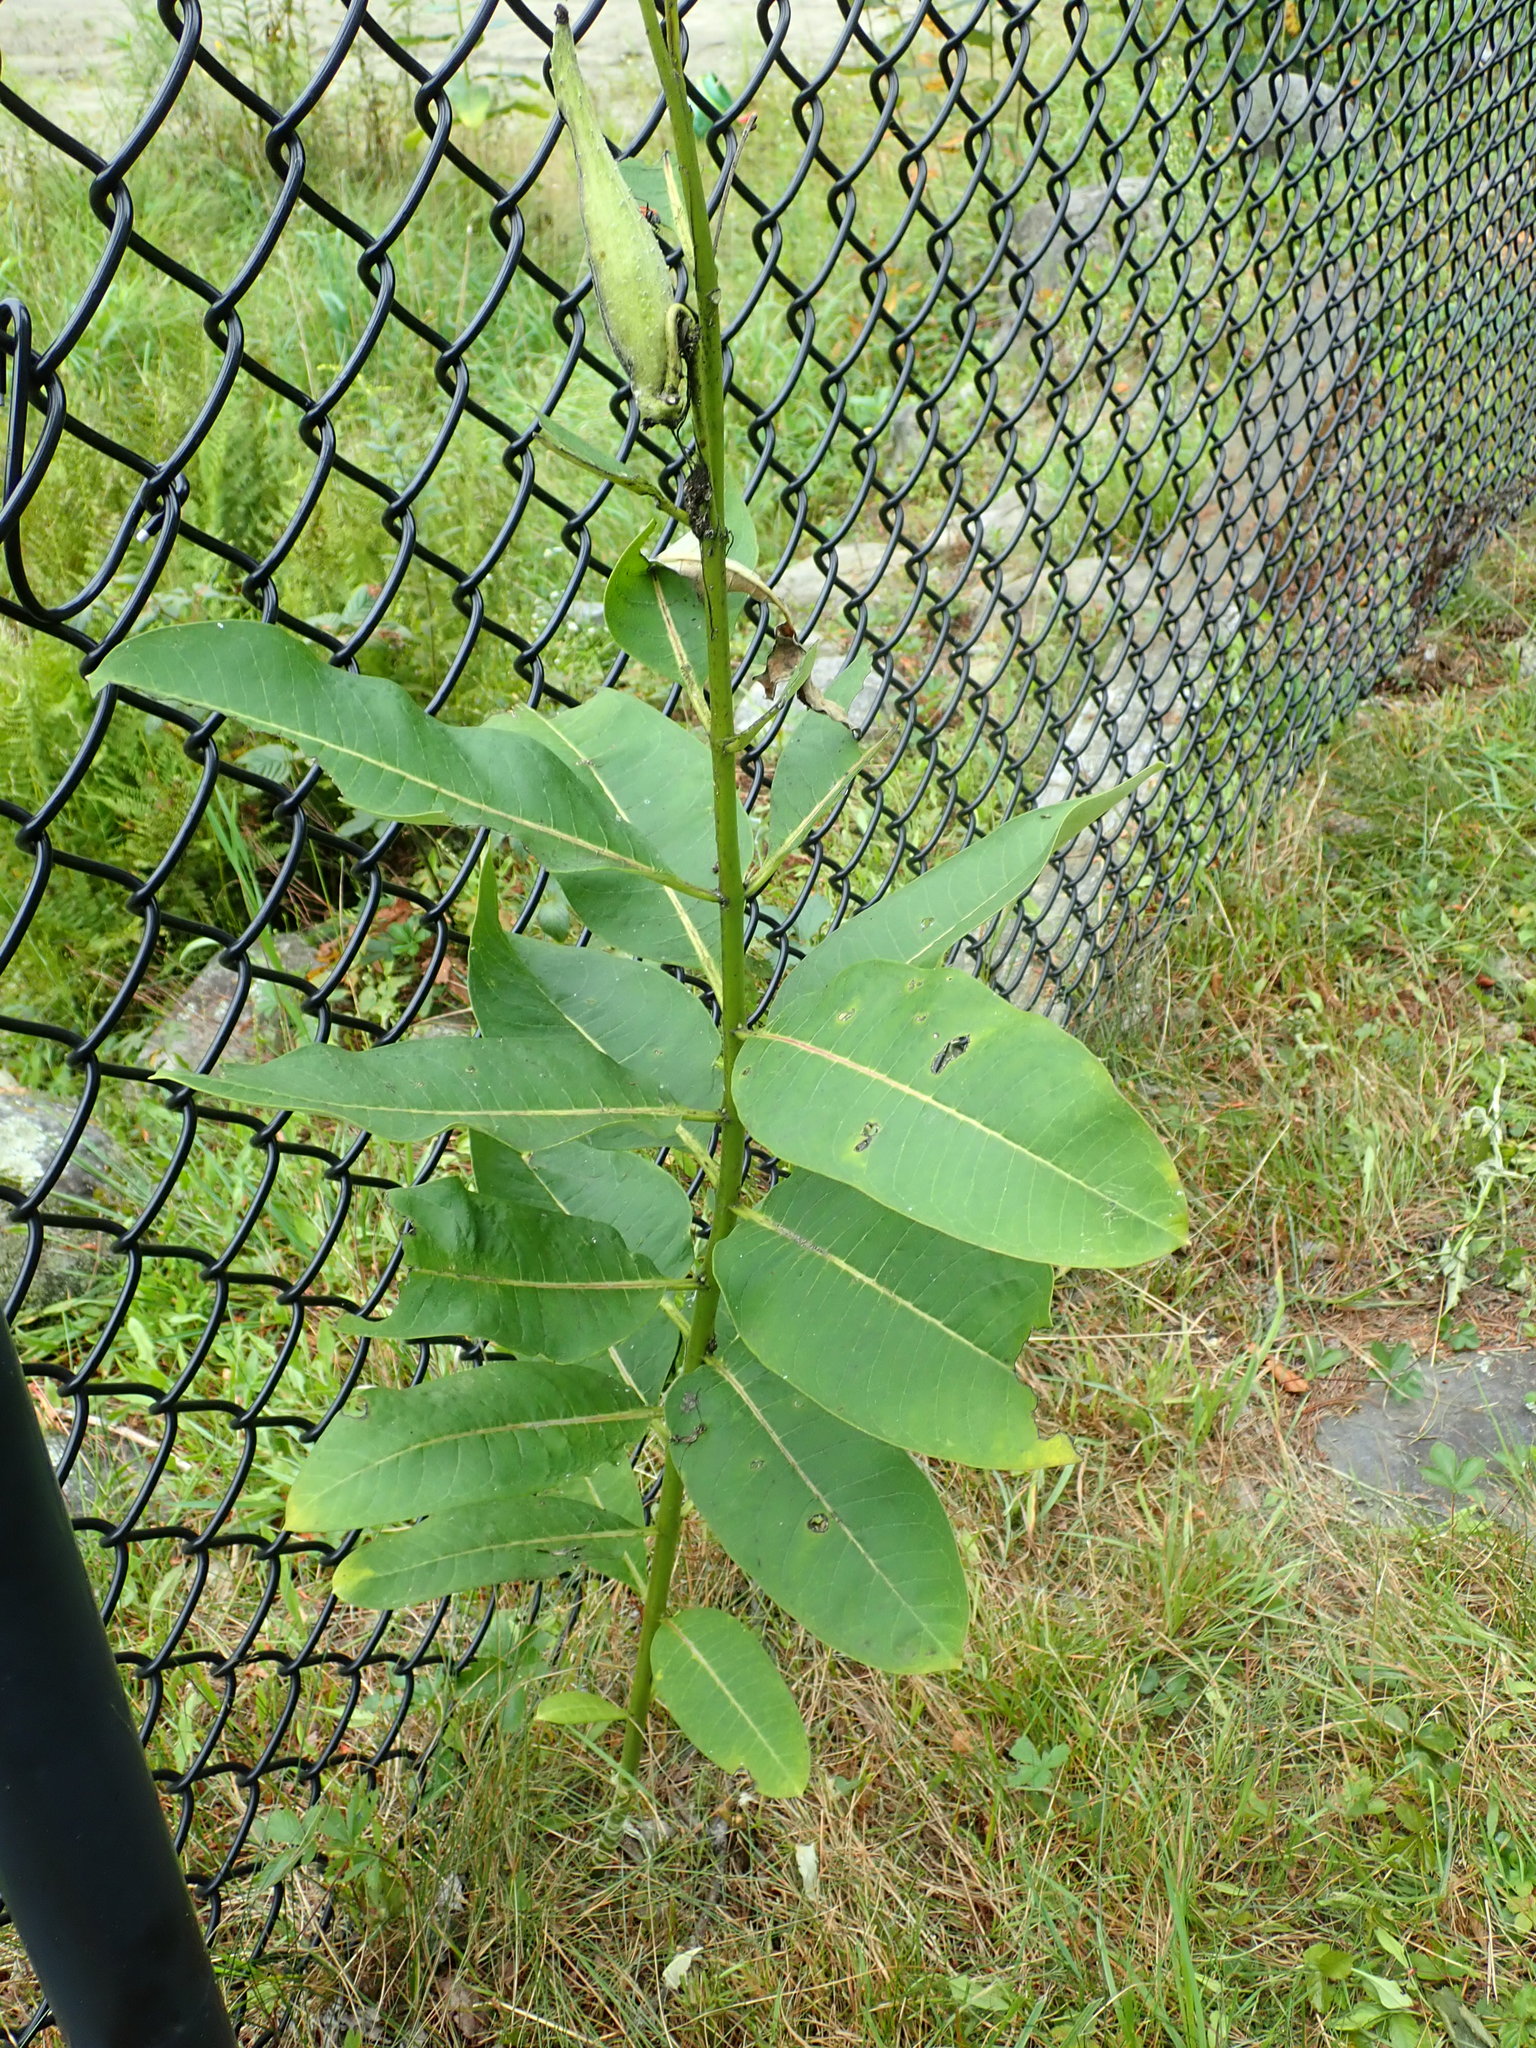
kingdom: Plantae
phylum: Tracheophyta
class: Magnoliopsida
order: Gentianales
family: Apocynaceae
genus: Asclepias
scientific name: Asclepias syriaca
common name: Common milkweed
